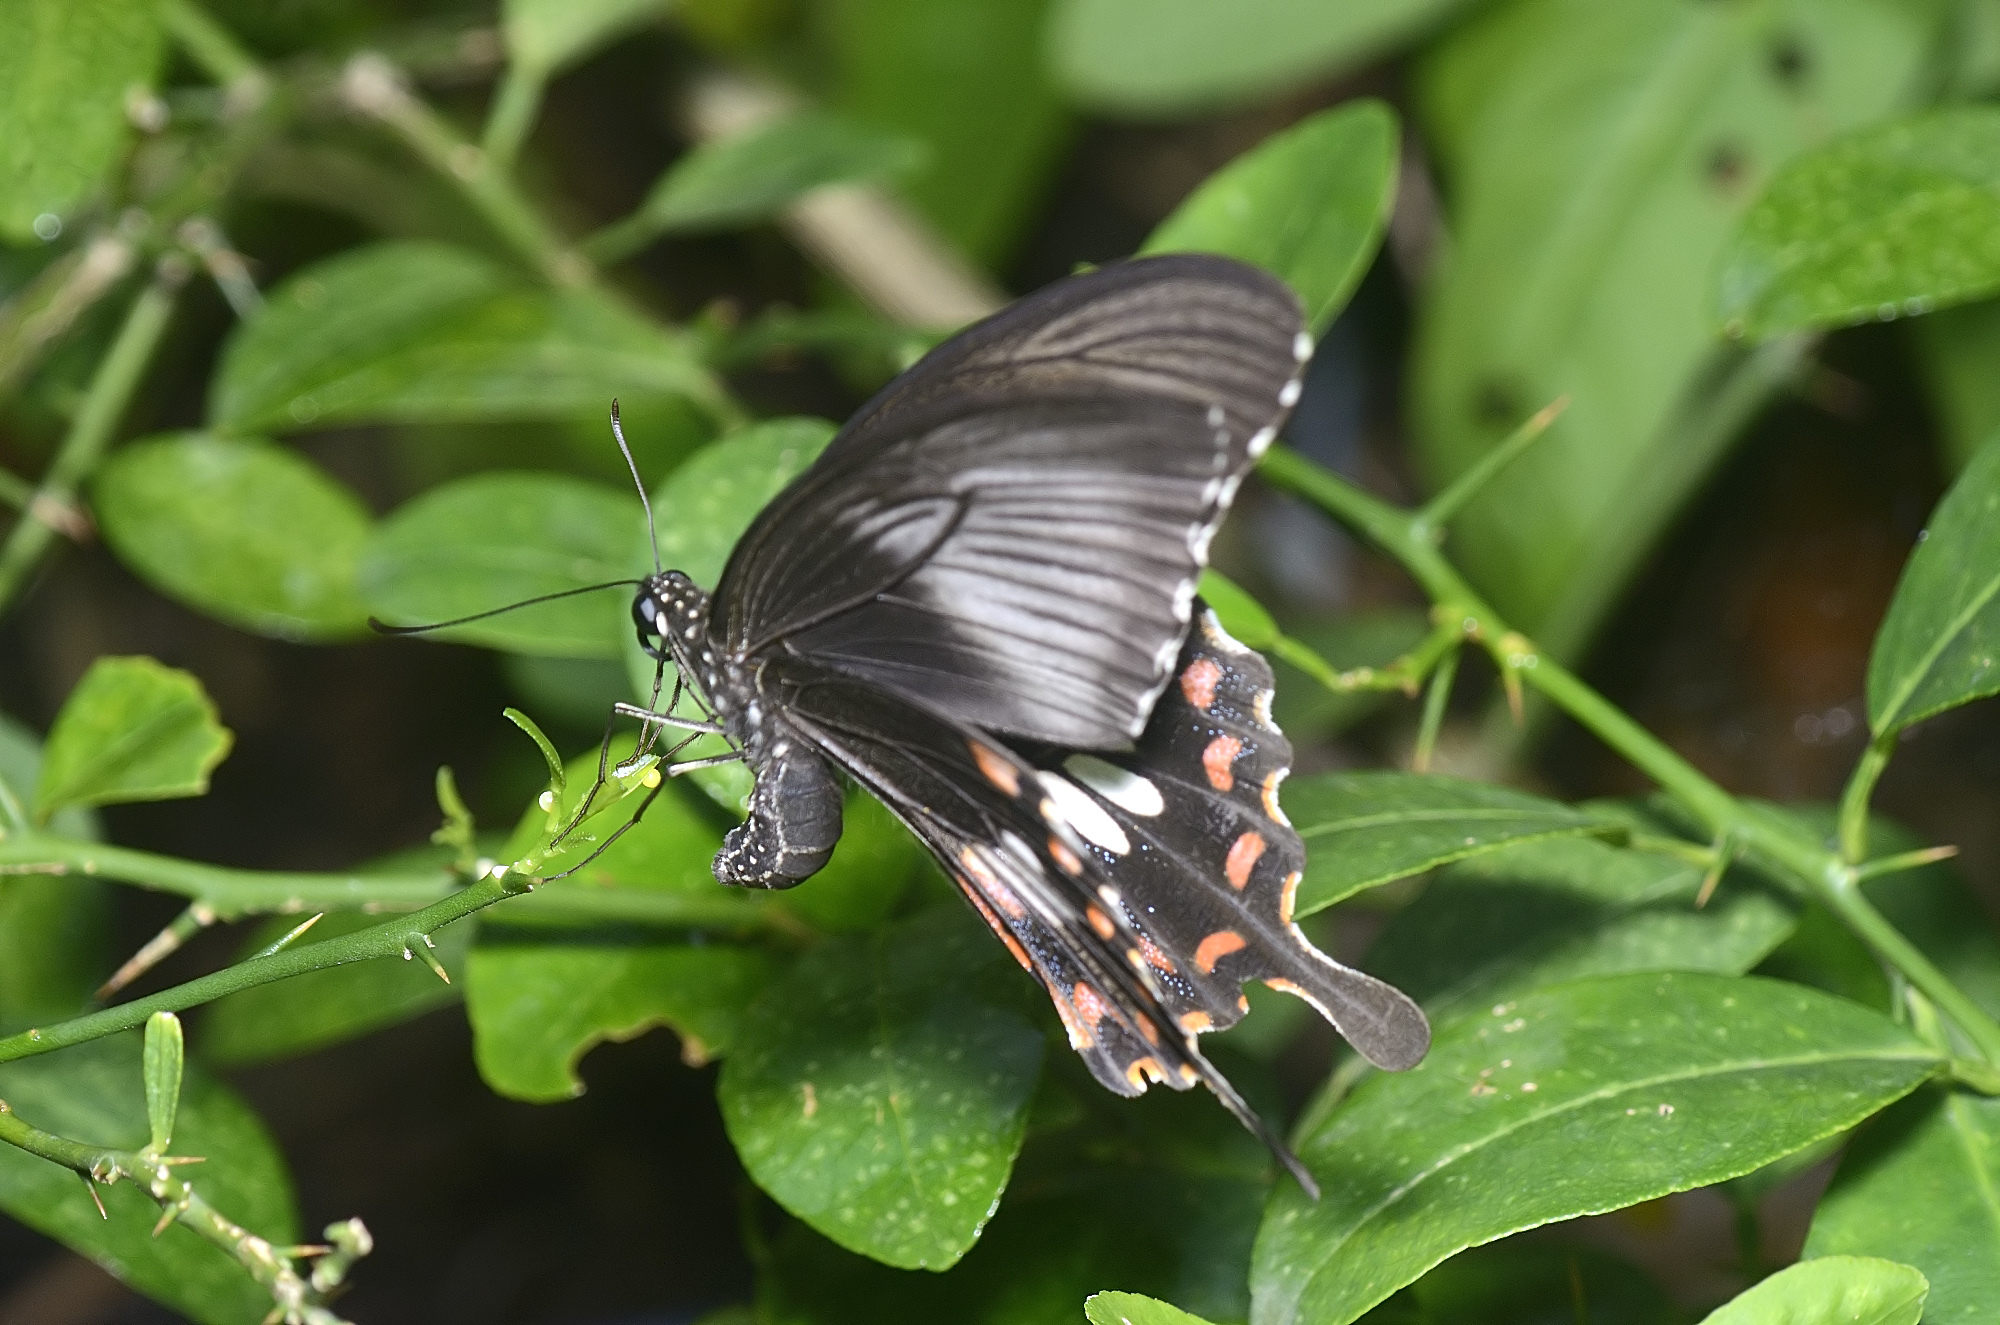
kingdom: Animalia
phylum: Arthropoda
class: Insecta
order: Lepidoptera
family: Papilionidae
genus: Papilio
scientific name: Papilio polytes
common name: Common mormon
